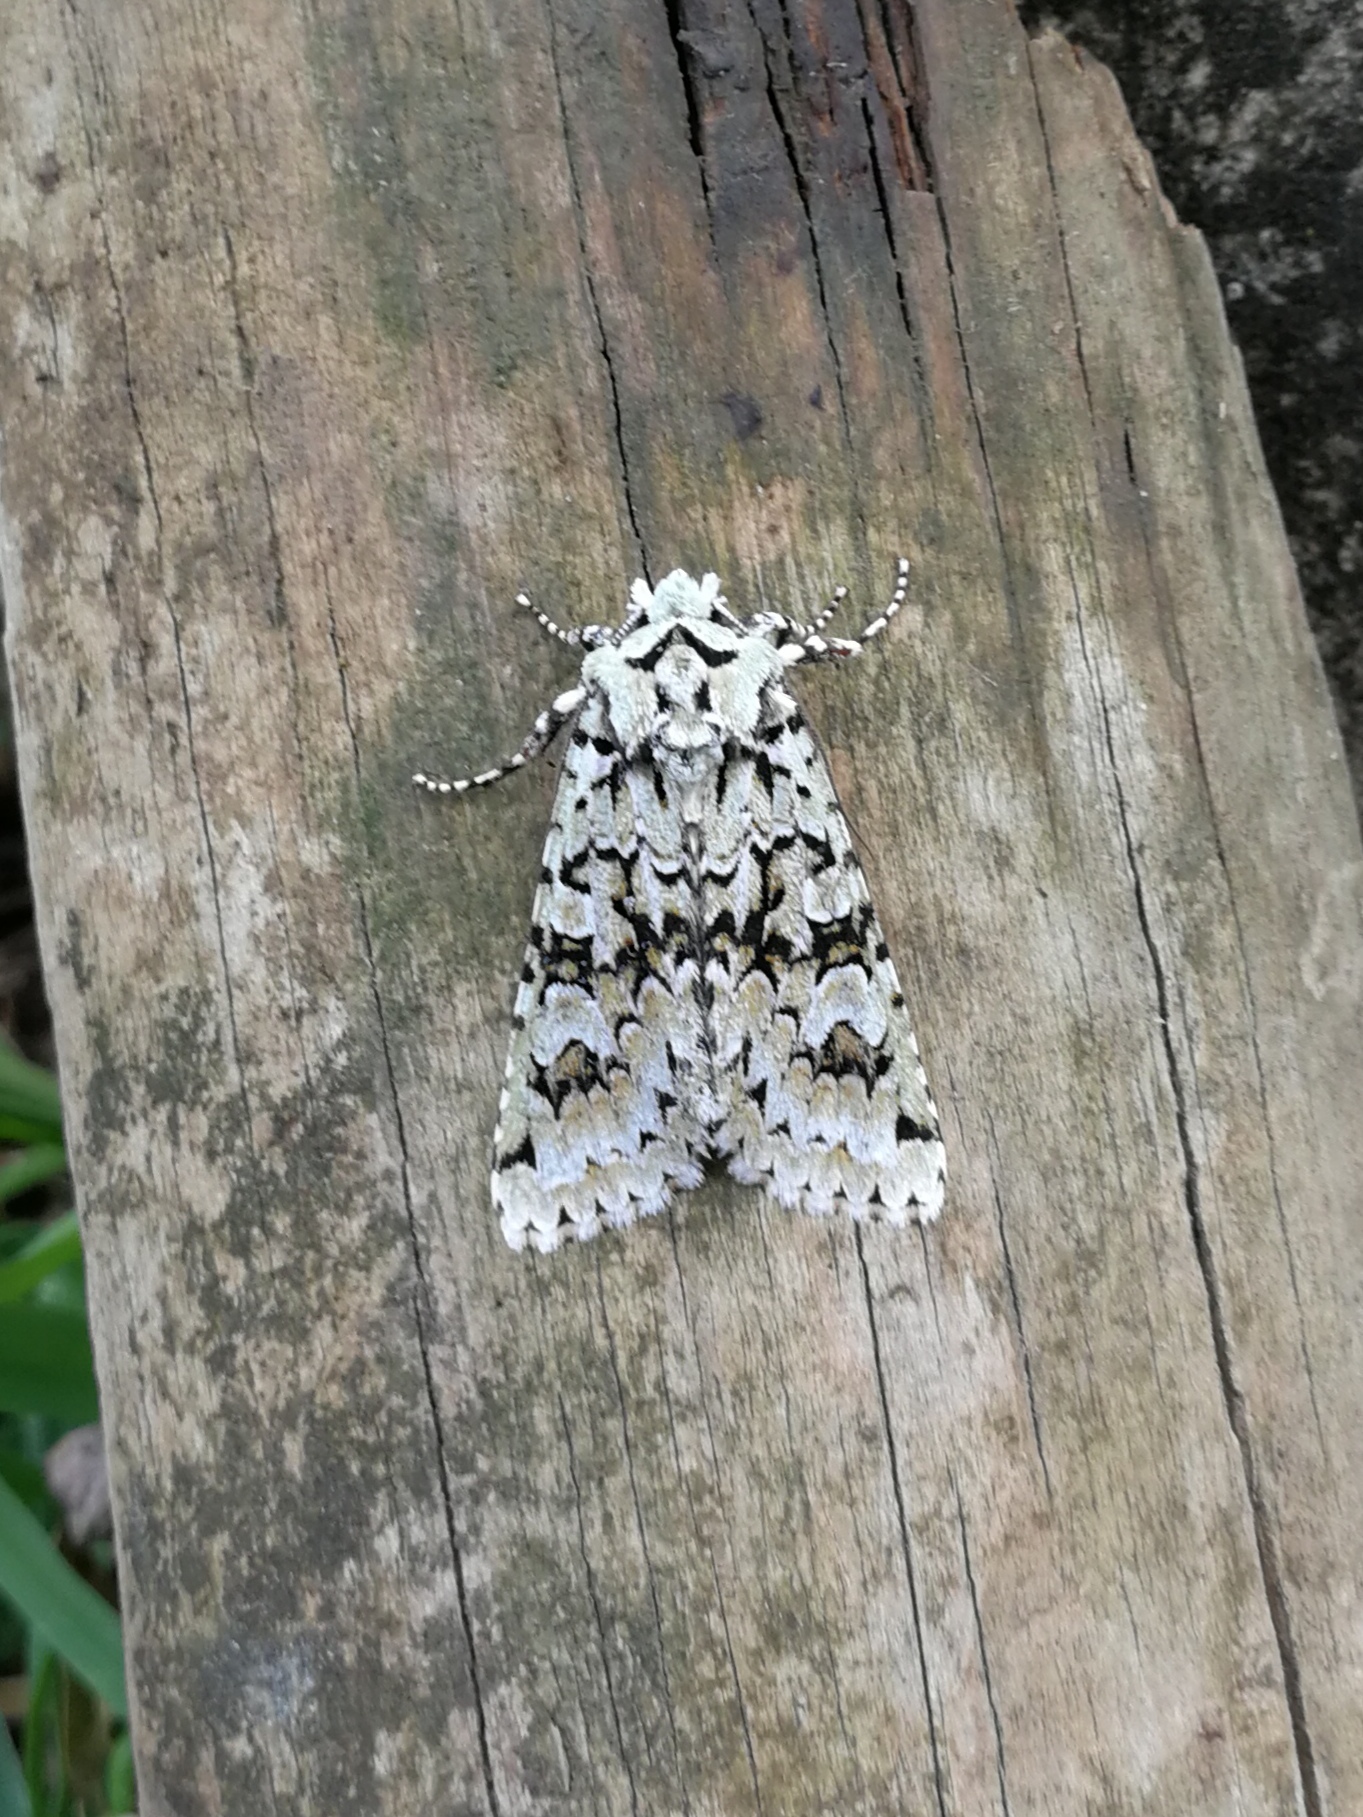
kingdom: Animalia
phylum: Arthropoda
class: Insecta
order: Lepidoptera
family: Noctuidae
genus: Griposia
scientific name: Griposia aprilina
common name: Merveille du jour
